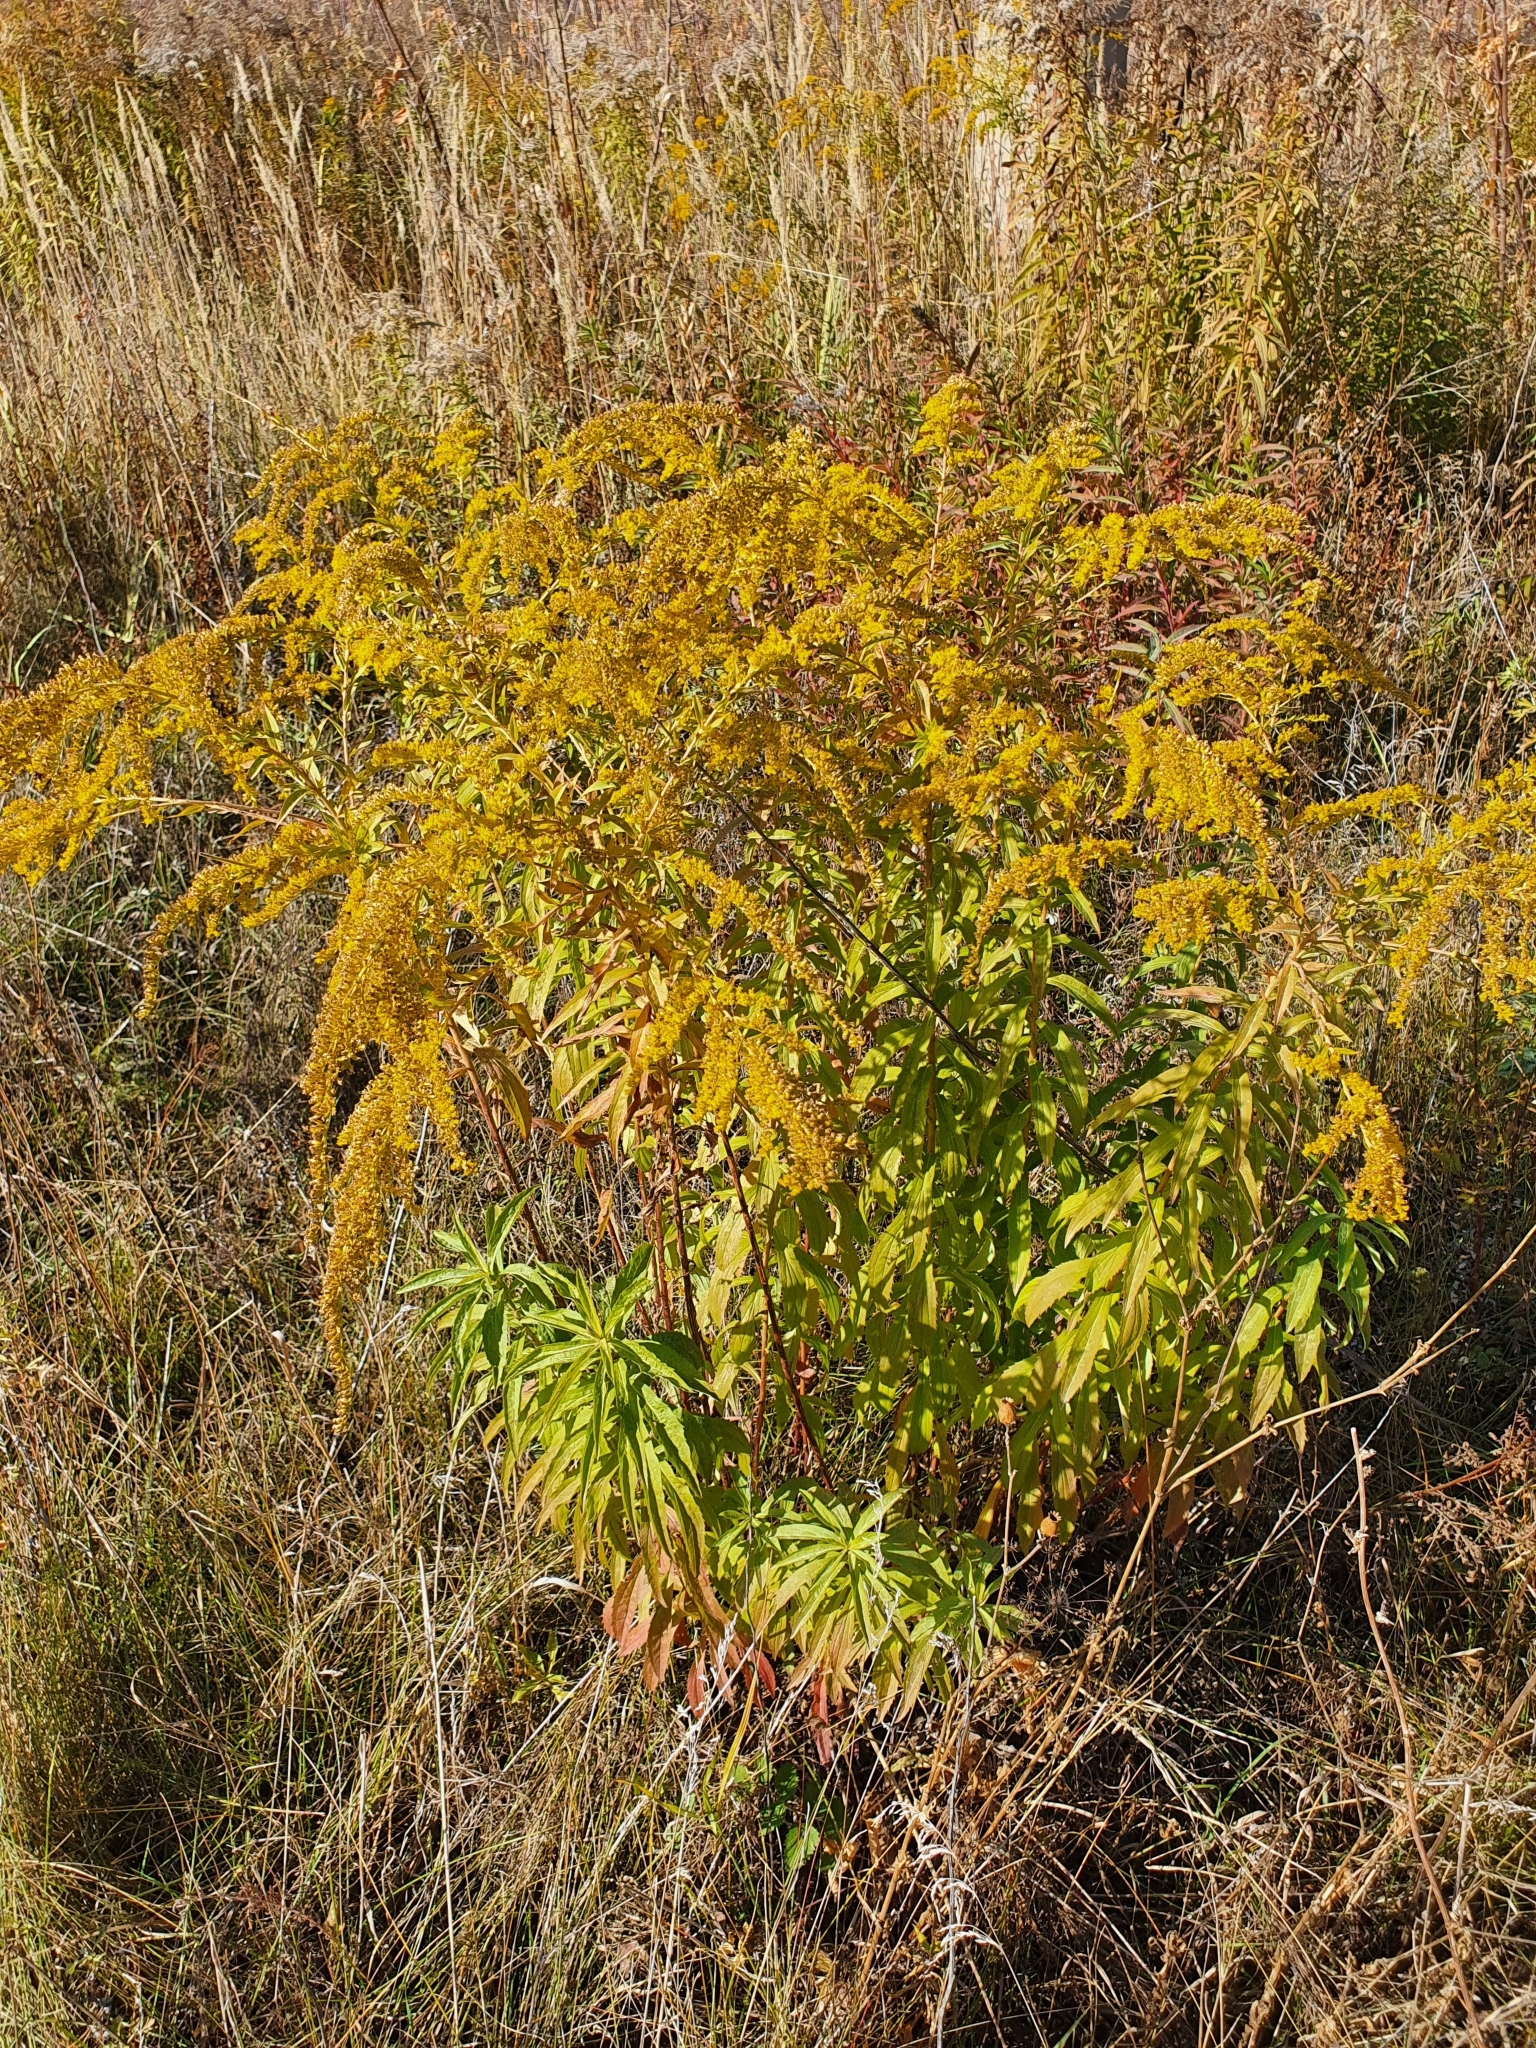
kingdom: Plantae
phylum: Tracheophyta
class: Magnoliopsida
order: Asterales
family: Asteraceae
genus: Solidago
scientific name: Solidago canadensis
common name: Canada goldenrod
